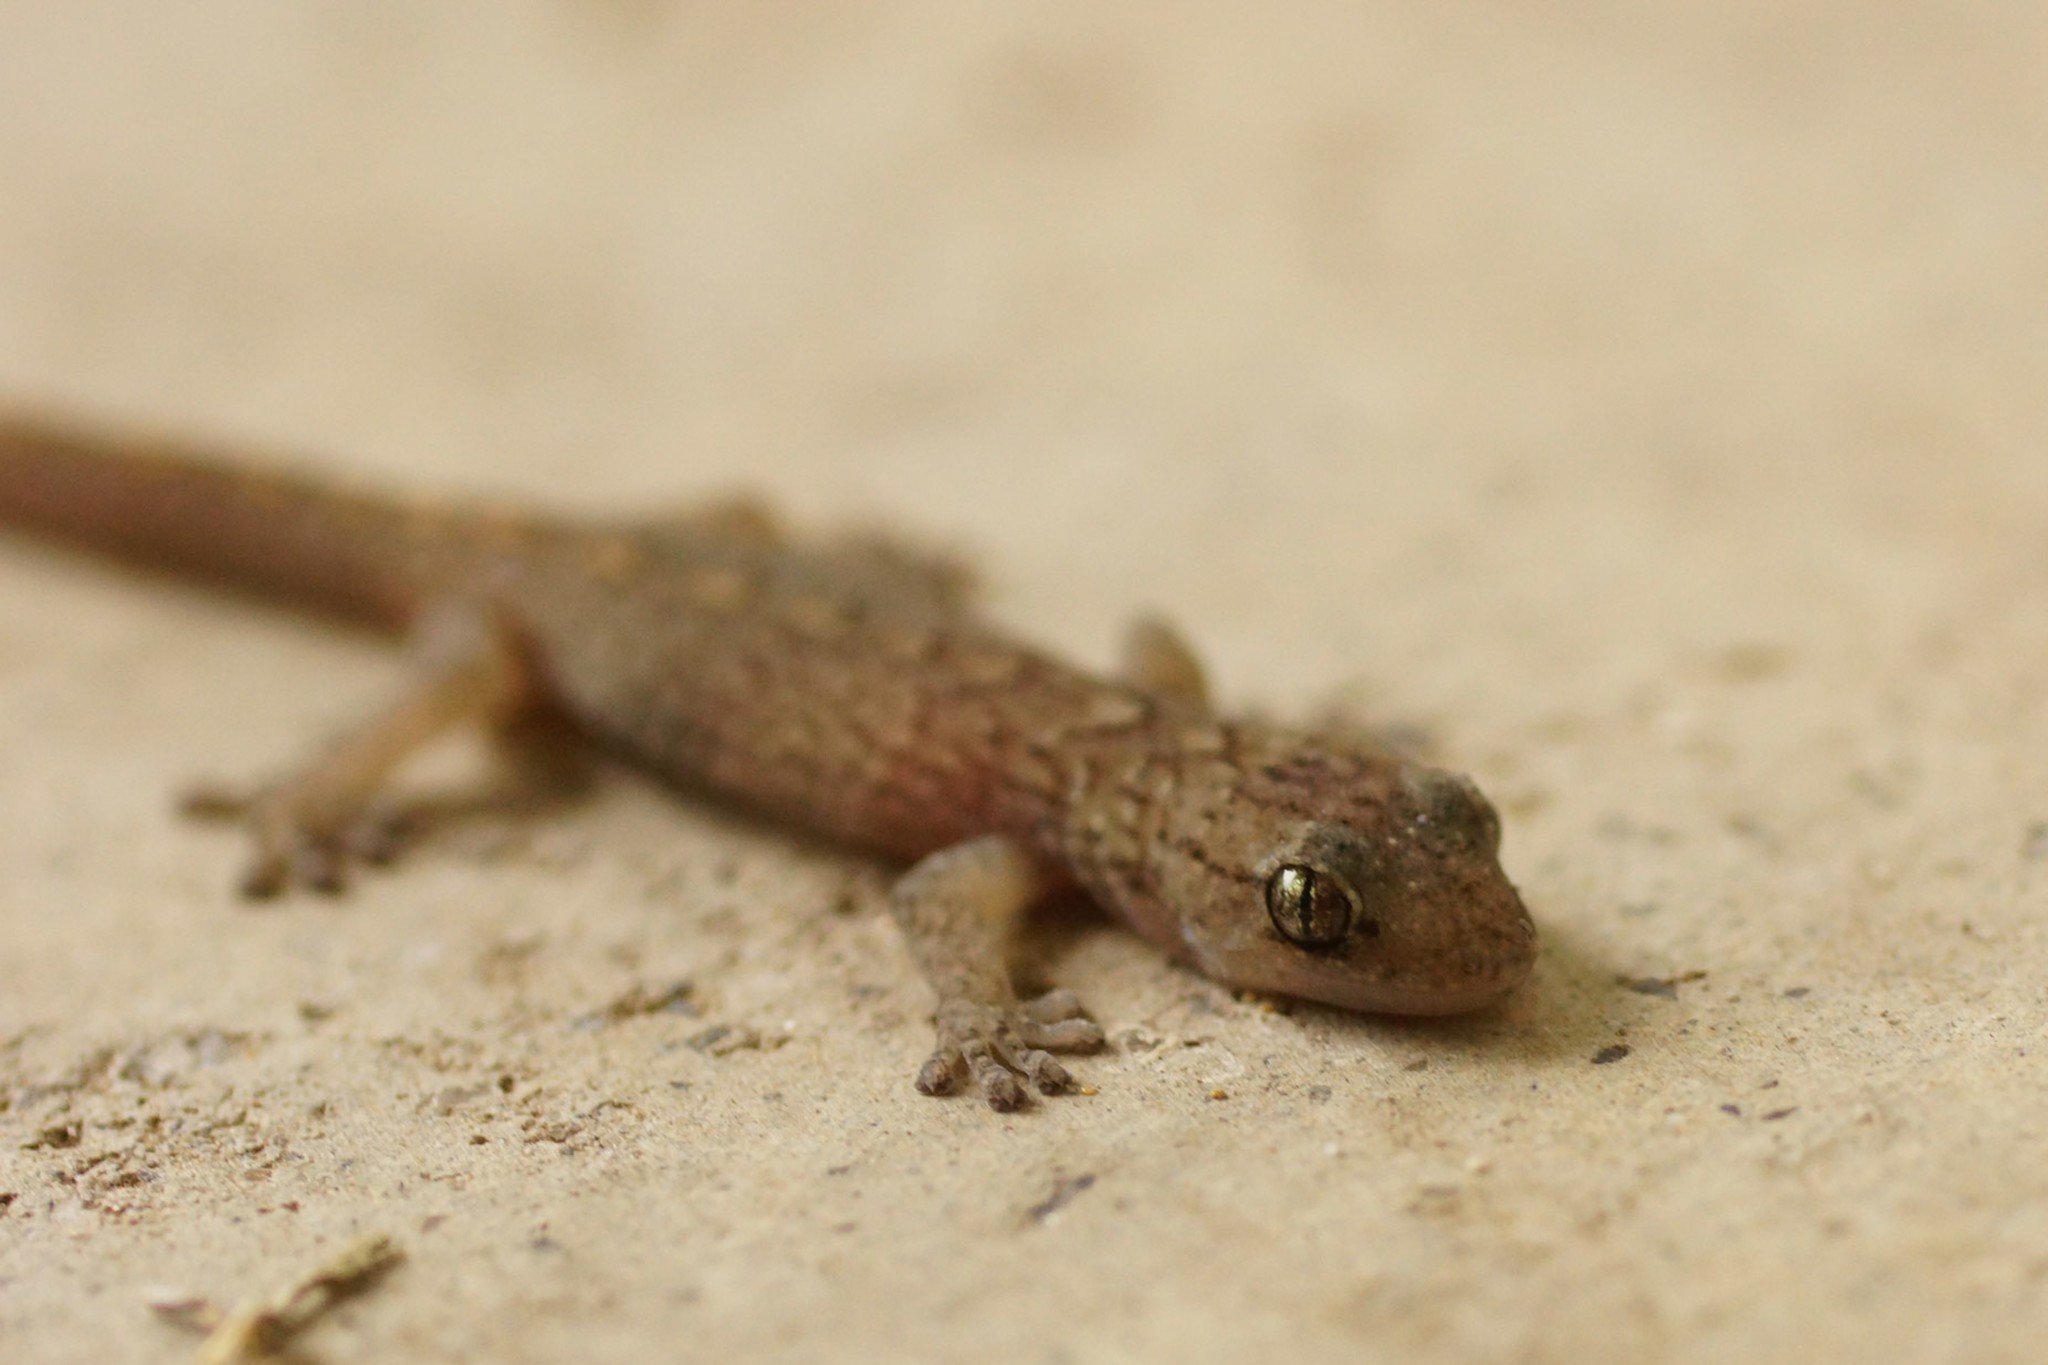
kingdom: Animalia
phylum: Chordata
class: Squamata
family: Gekkonidae
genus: Christinus
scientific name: Christinus marmoratus
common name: Marbled gecko
